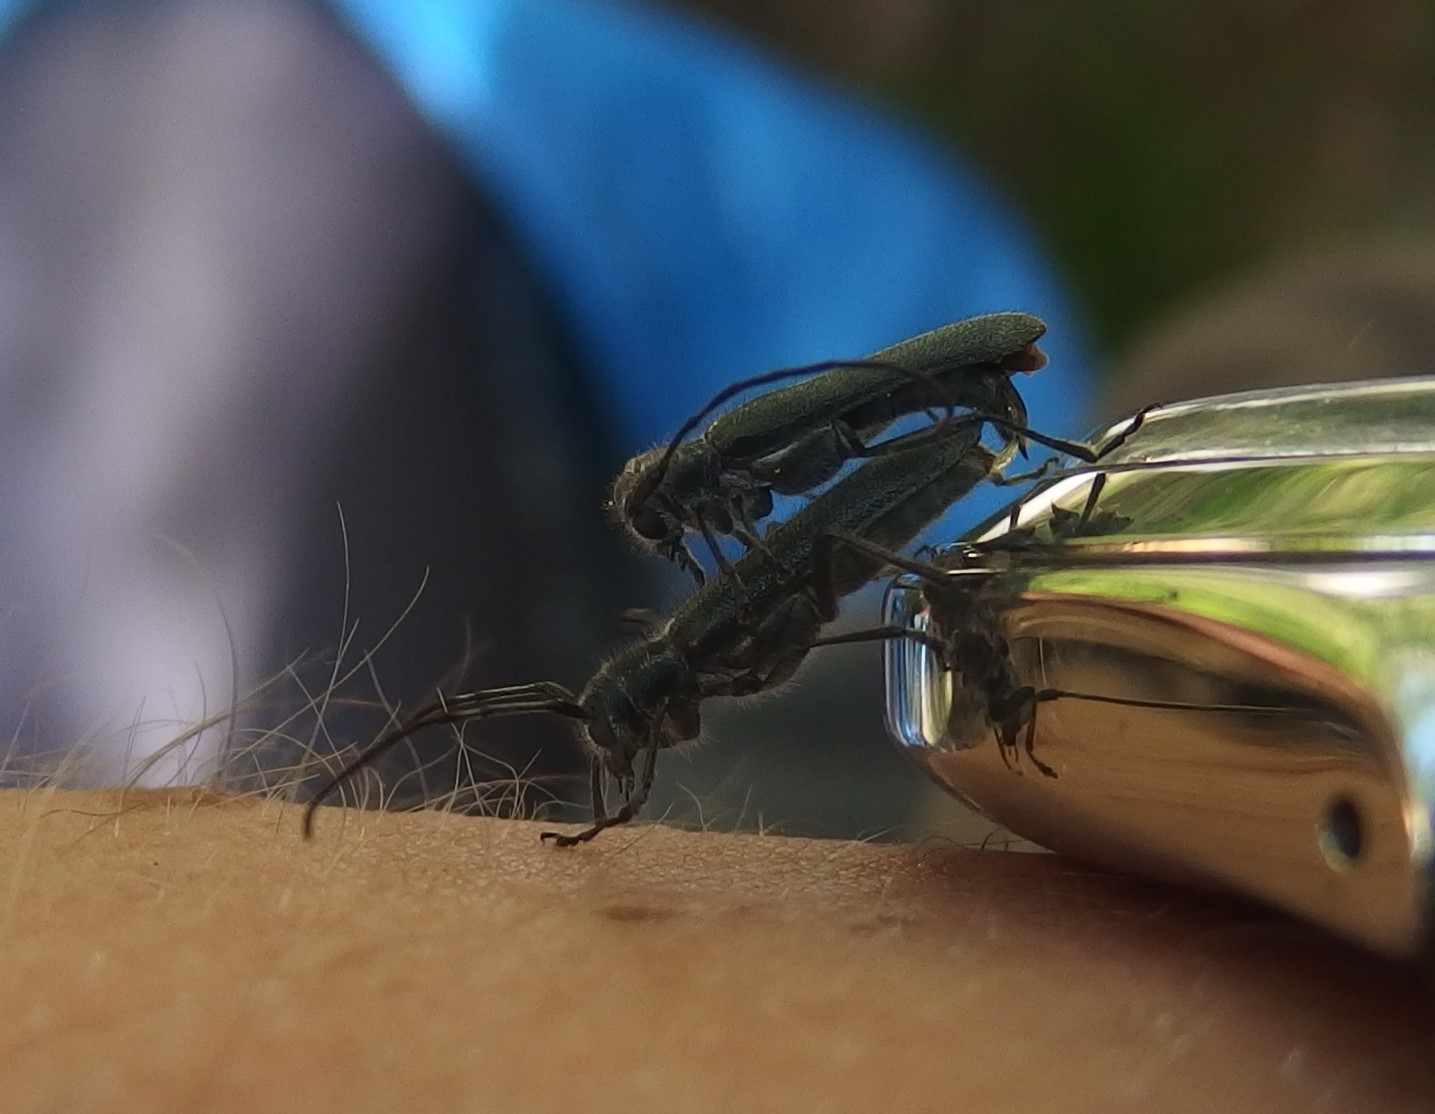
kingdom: Animalia
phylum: Arthropoda
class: Insecta
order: Coleoptera
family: Cerambycidae
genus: Stenostola
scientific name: Stenostola dubia
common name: Lime beetle
